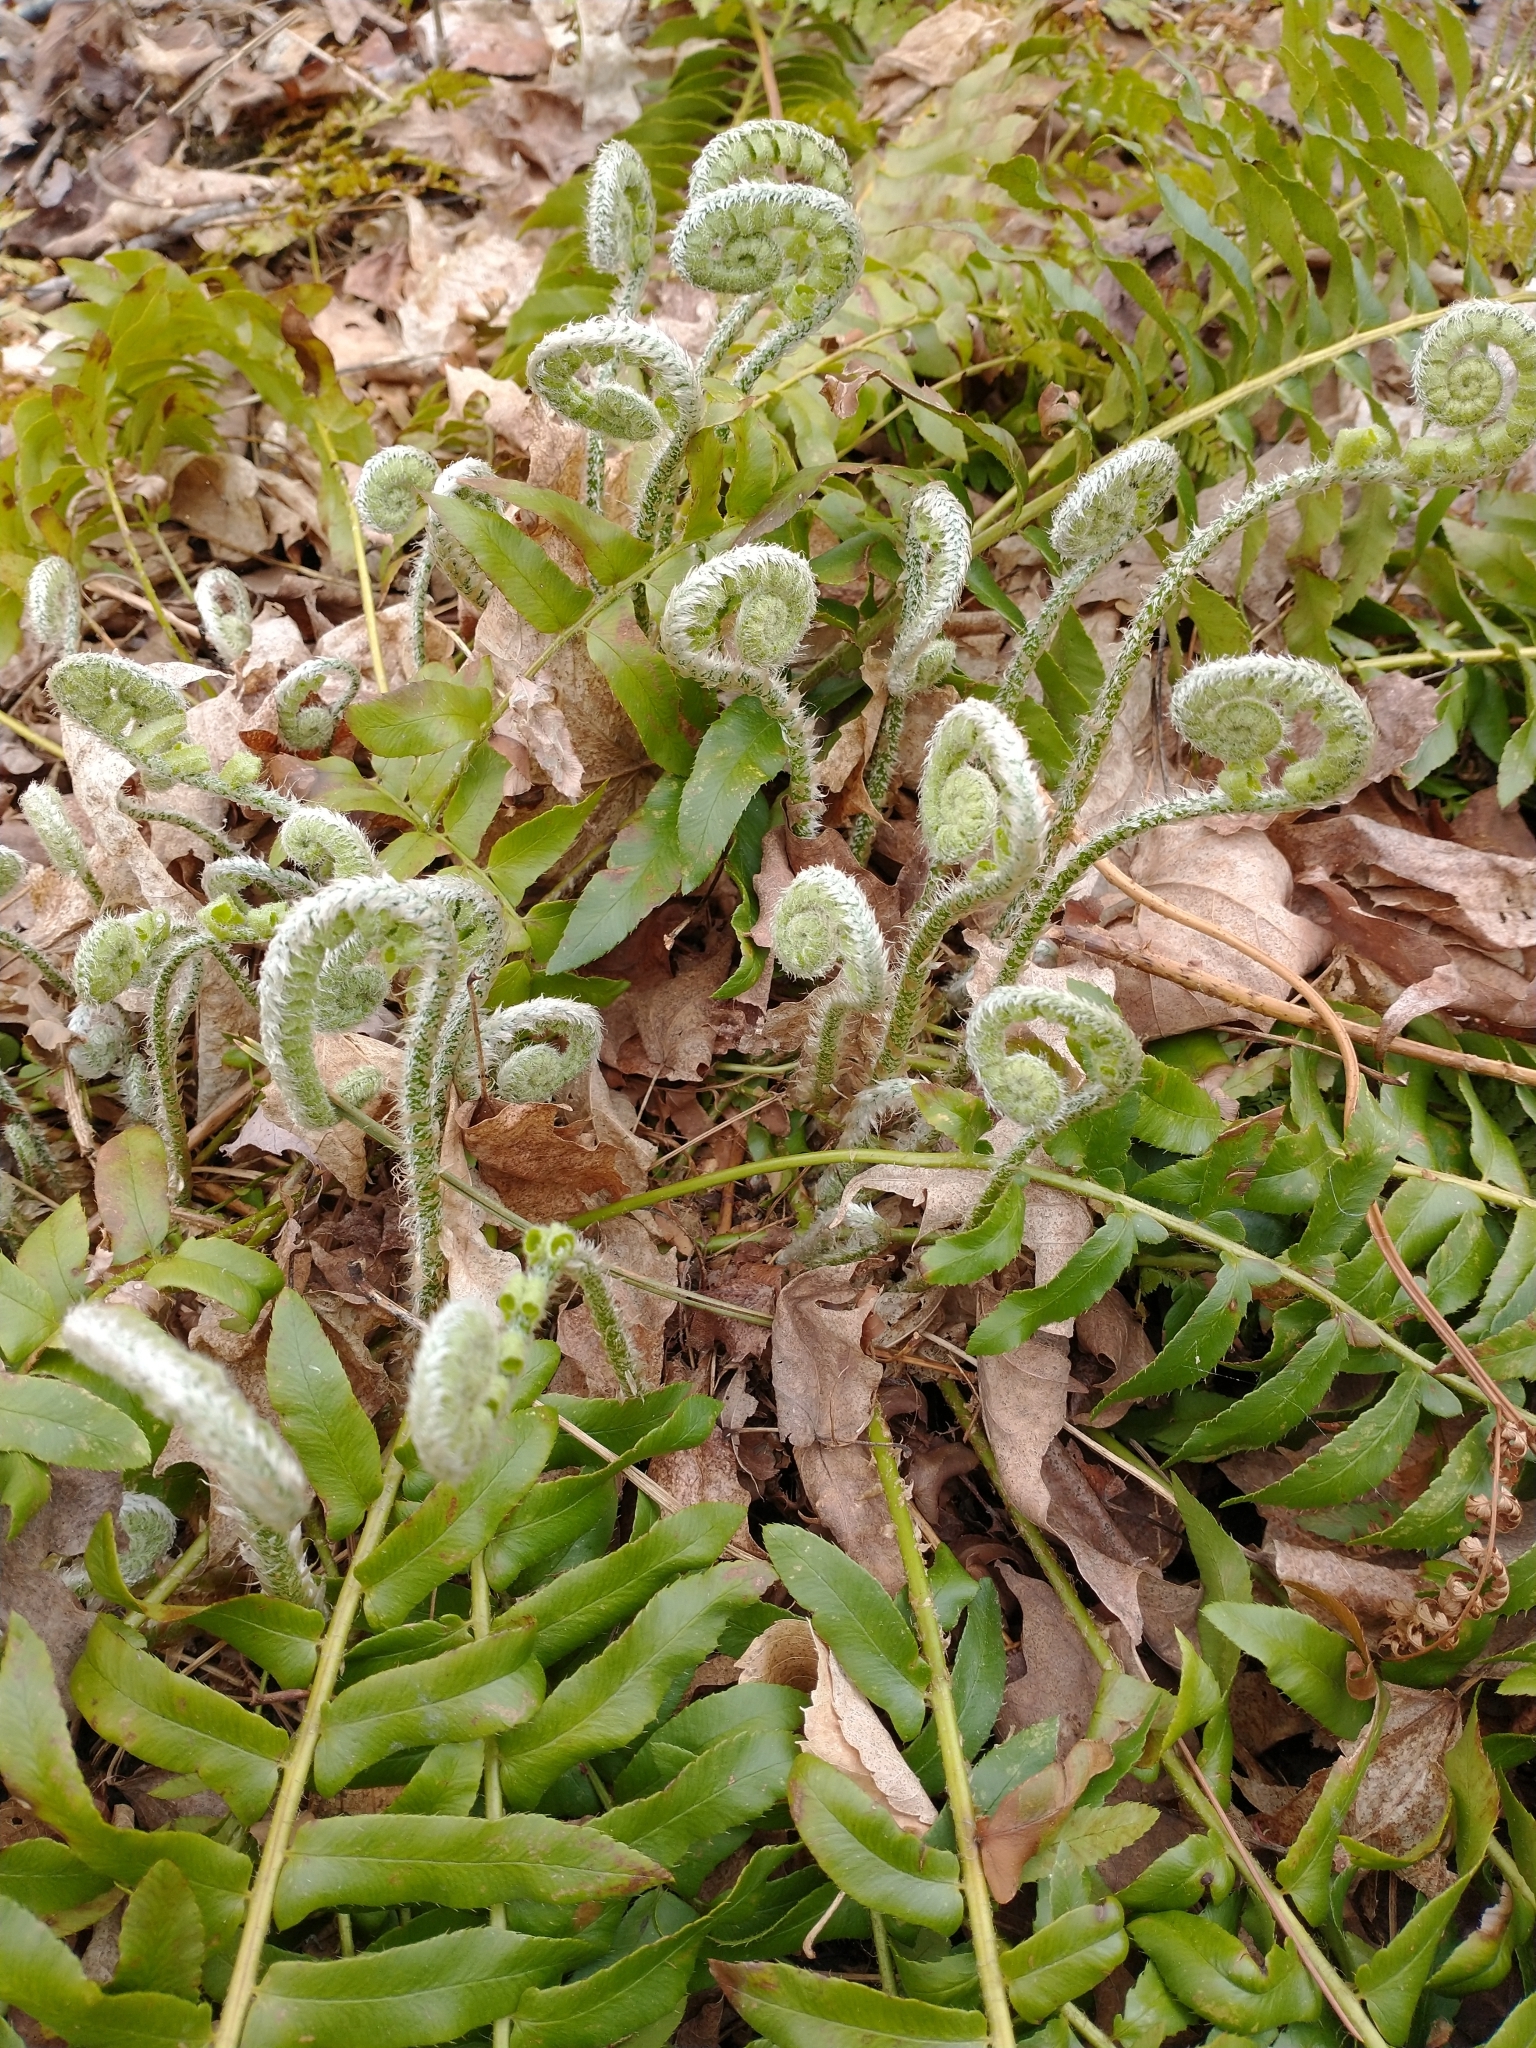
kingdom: Plantae
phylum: Tracheophyta
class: Polypodiopsida
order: Polypodiales
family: Dryopteridaceae
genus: Polystichum
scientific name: Polystichum acrostichoides
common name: Christmas fern
